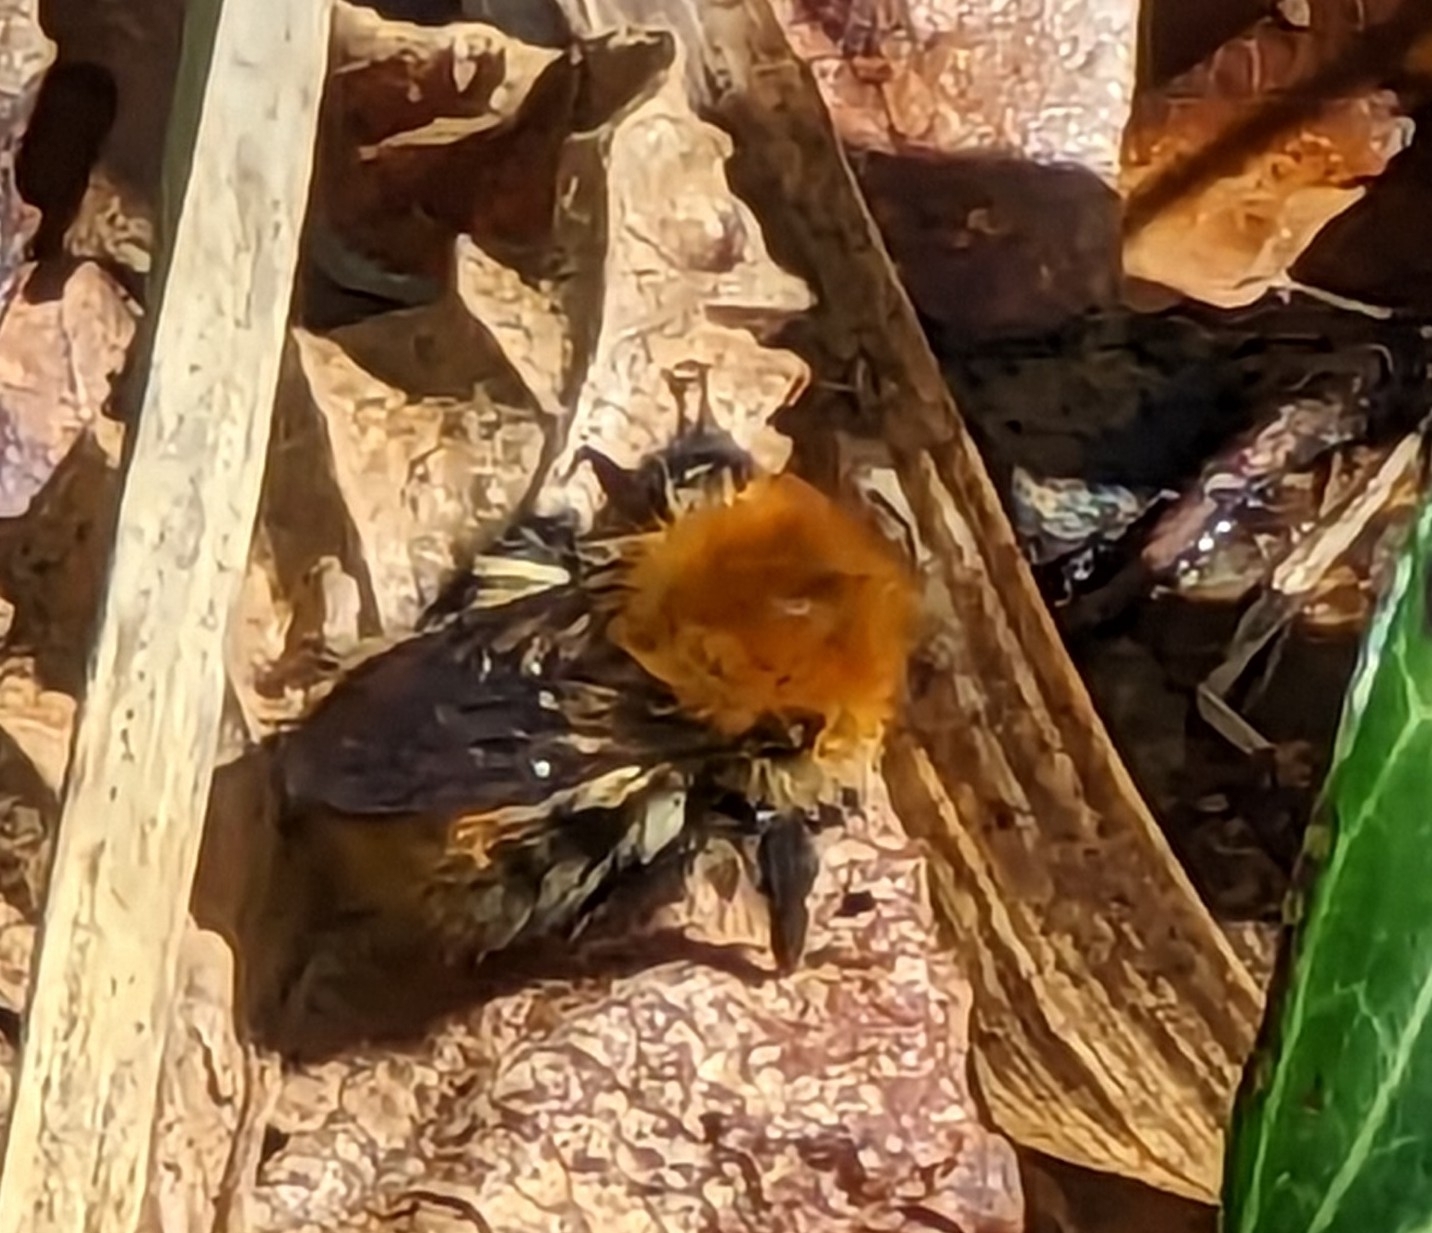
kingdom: Animalia
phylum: Arthropoda
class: Insecta
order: Hymenoptera
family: Apidae
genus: Bombus
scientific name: Bombus pascuorum
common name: Common carder bee
